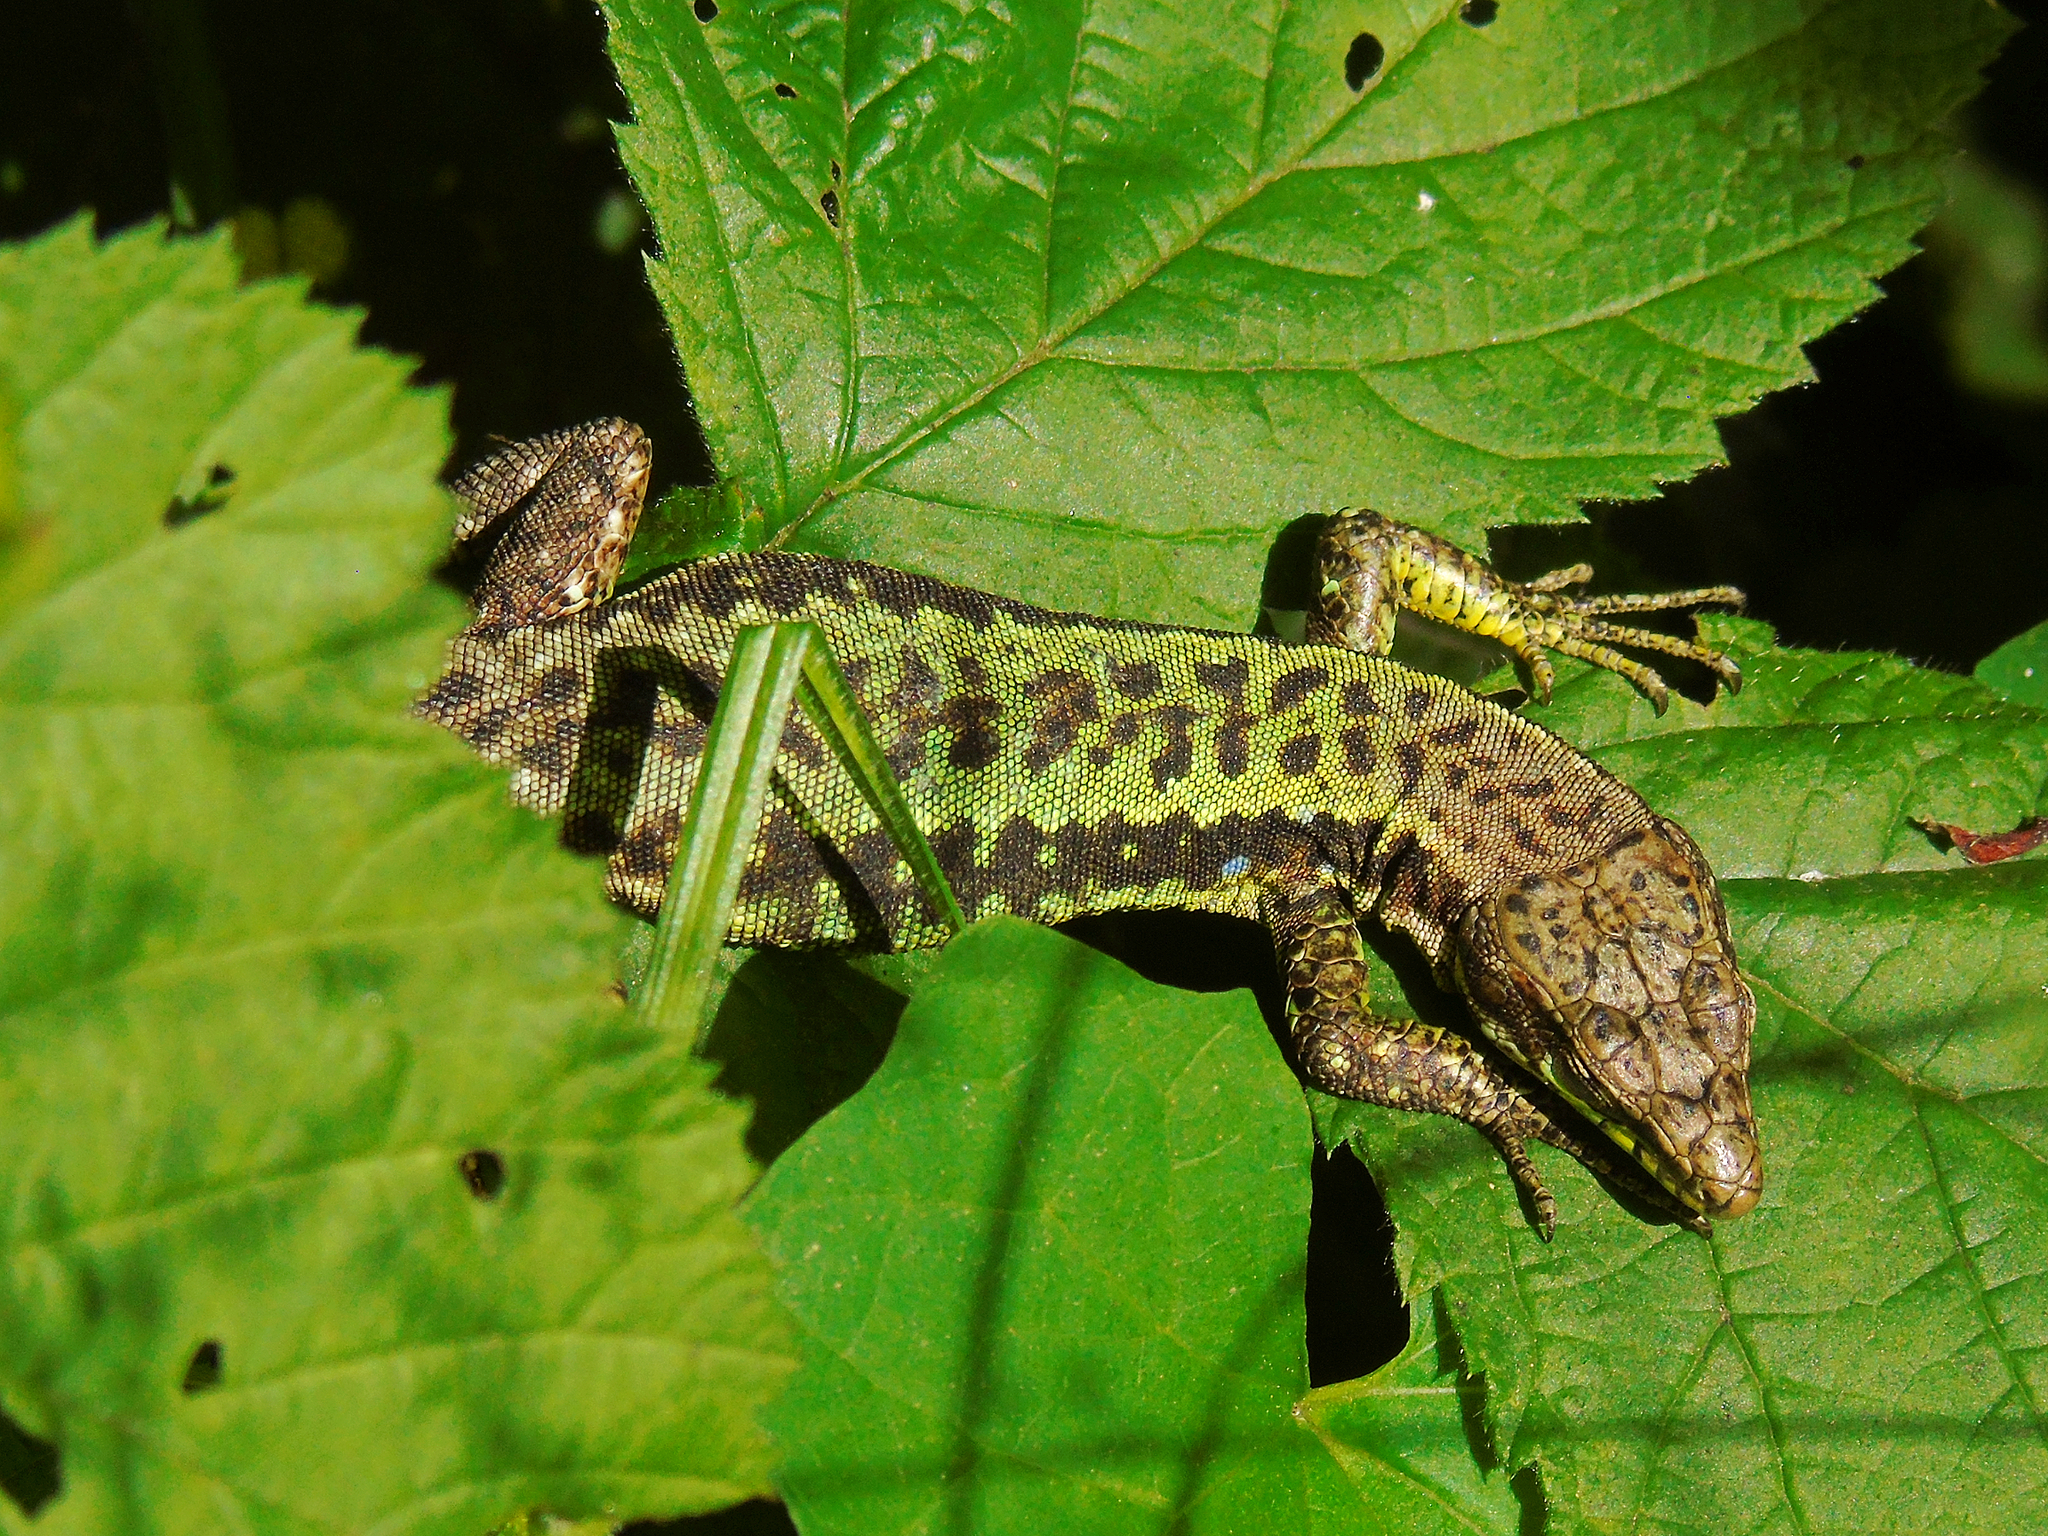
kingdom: Animalia
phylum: Chordata
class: Squamata
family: Lacertidae
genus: Darevskia
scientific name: Darevskia rudis
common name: Spiny-tailed lizard
